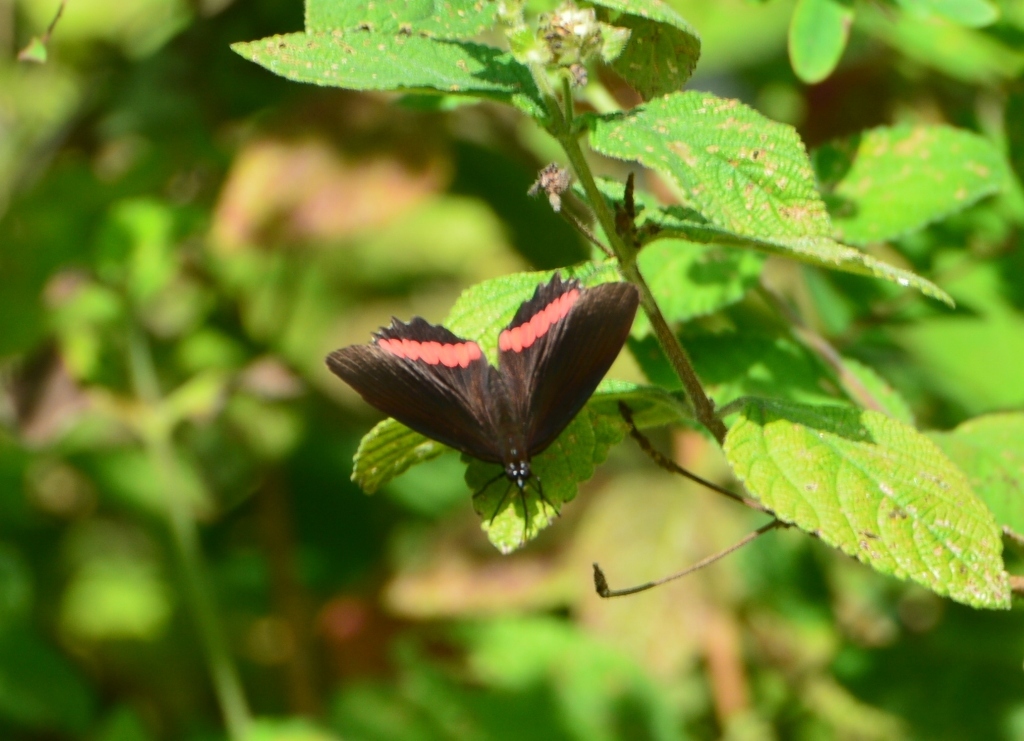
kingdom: Animalia
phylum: Arthropoda
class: Insecta
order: Lepidoptera
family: Nymphalidae
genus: Biblis
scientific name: Biblis aganisa
